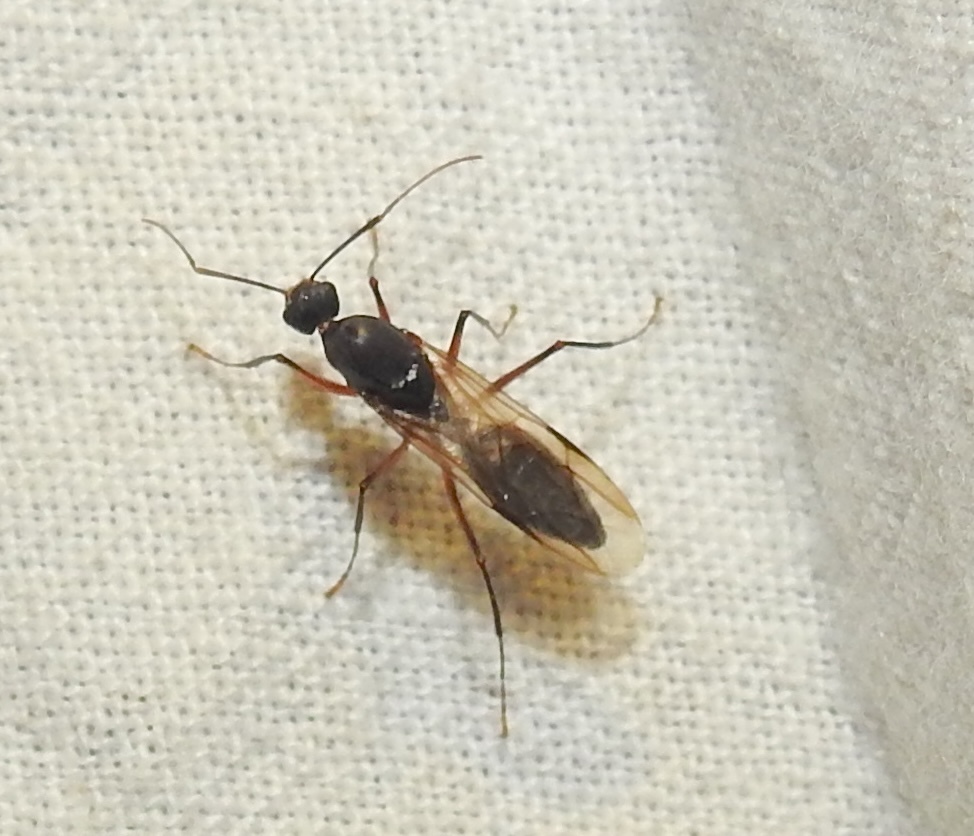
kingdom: Animalia
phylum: Arthropoda
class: Insecta
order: Hymenoptera
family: Formicidae
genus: Camponotus
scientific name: Camponotus compressus
